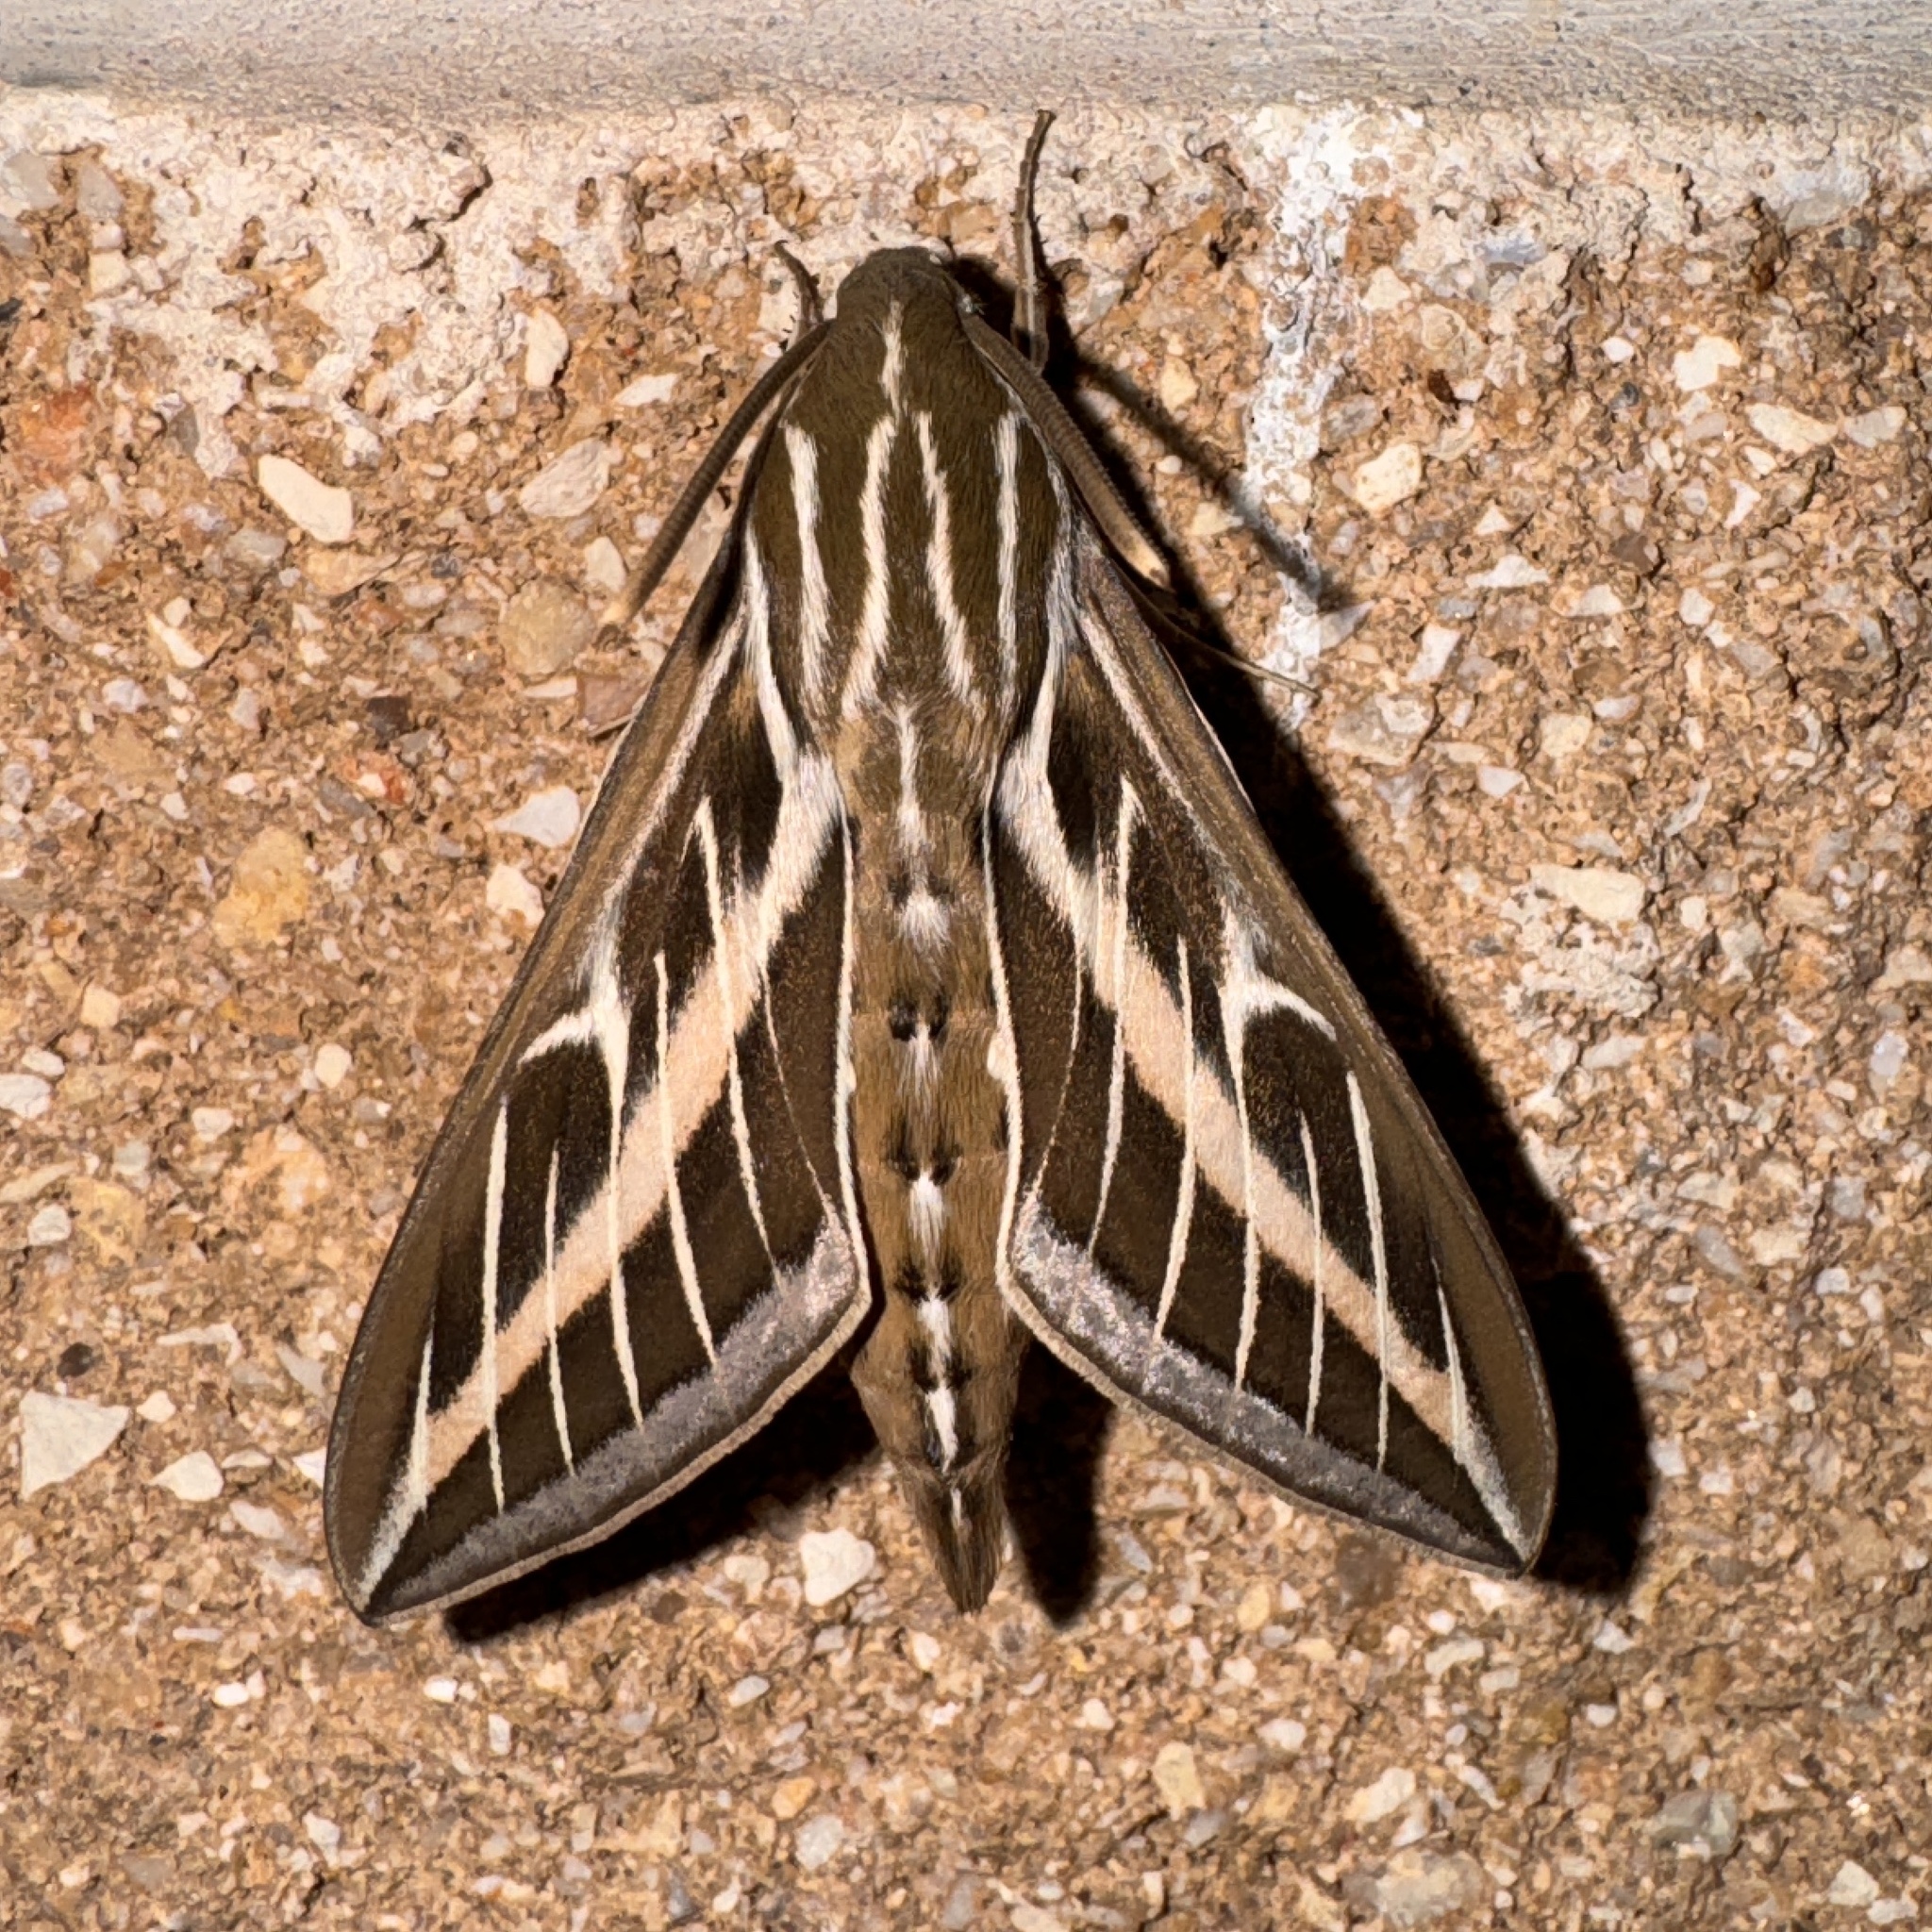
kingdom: Animalia
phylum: Arthropoda
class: Insecta
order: Lepidoptera
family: Sphingidae
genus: Hyles
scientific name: Hyles lineata
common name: White-lined sphinx
